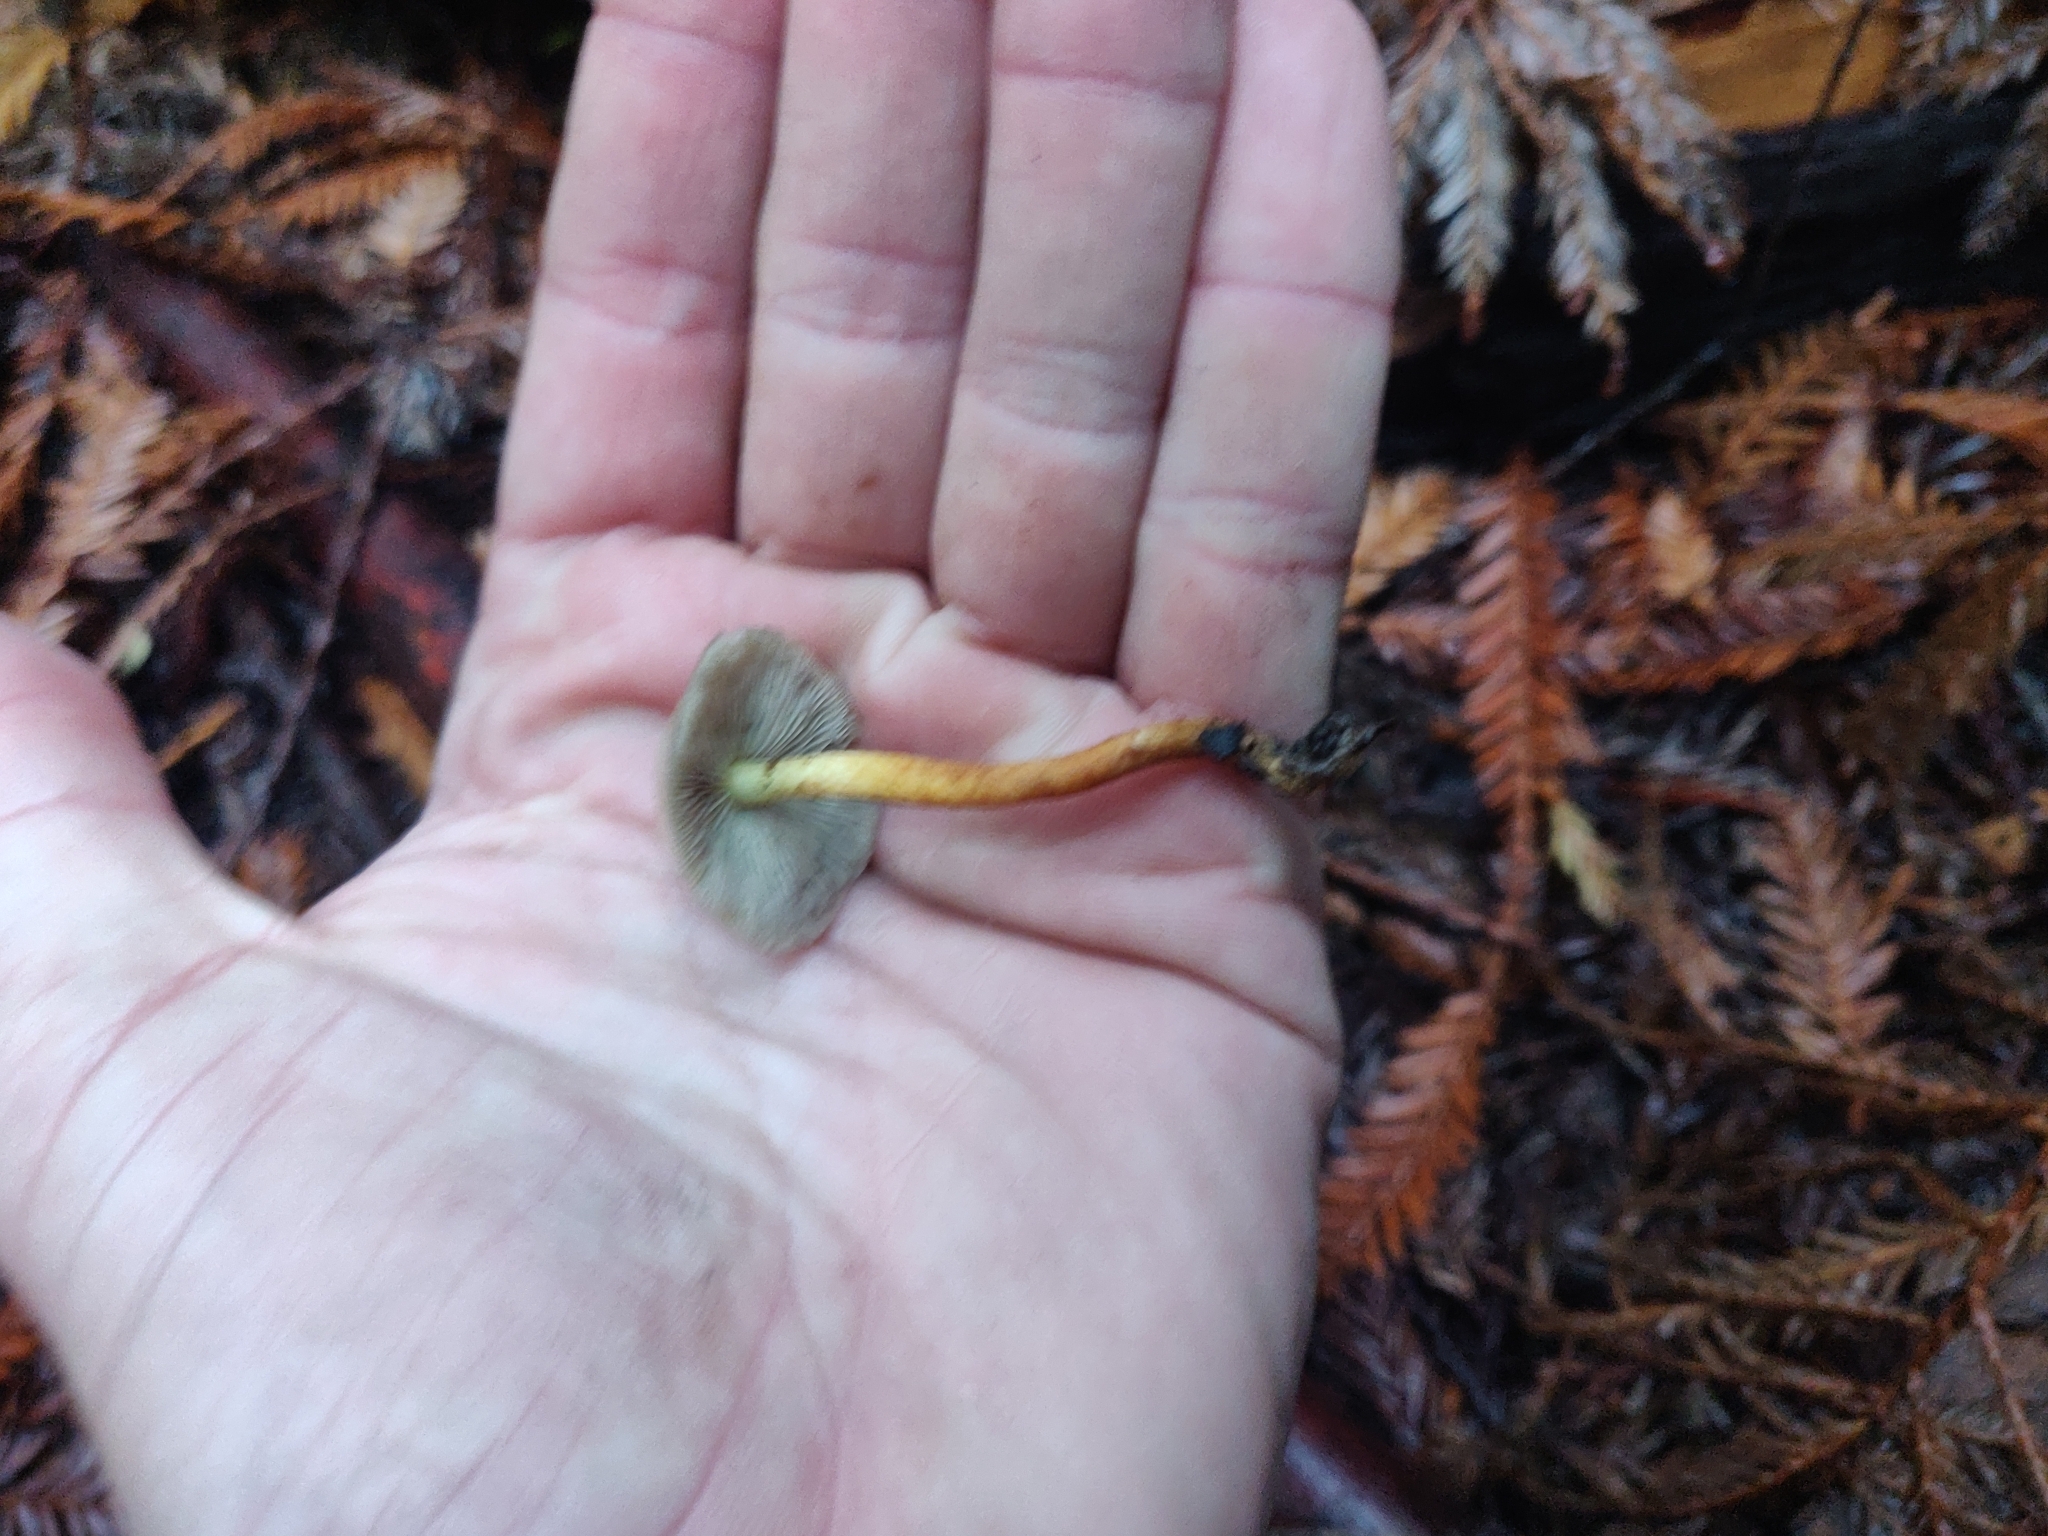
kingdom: Fungi
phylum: Basidiomycota
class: Agaricomycetes
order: Agaricales
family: Strophariaceae
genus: Hypholoma
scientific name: Hypholoma fasciculare
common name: Sulphur tuft
